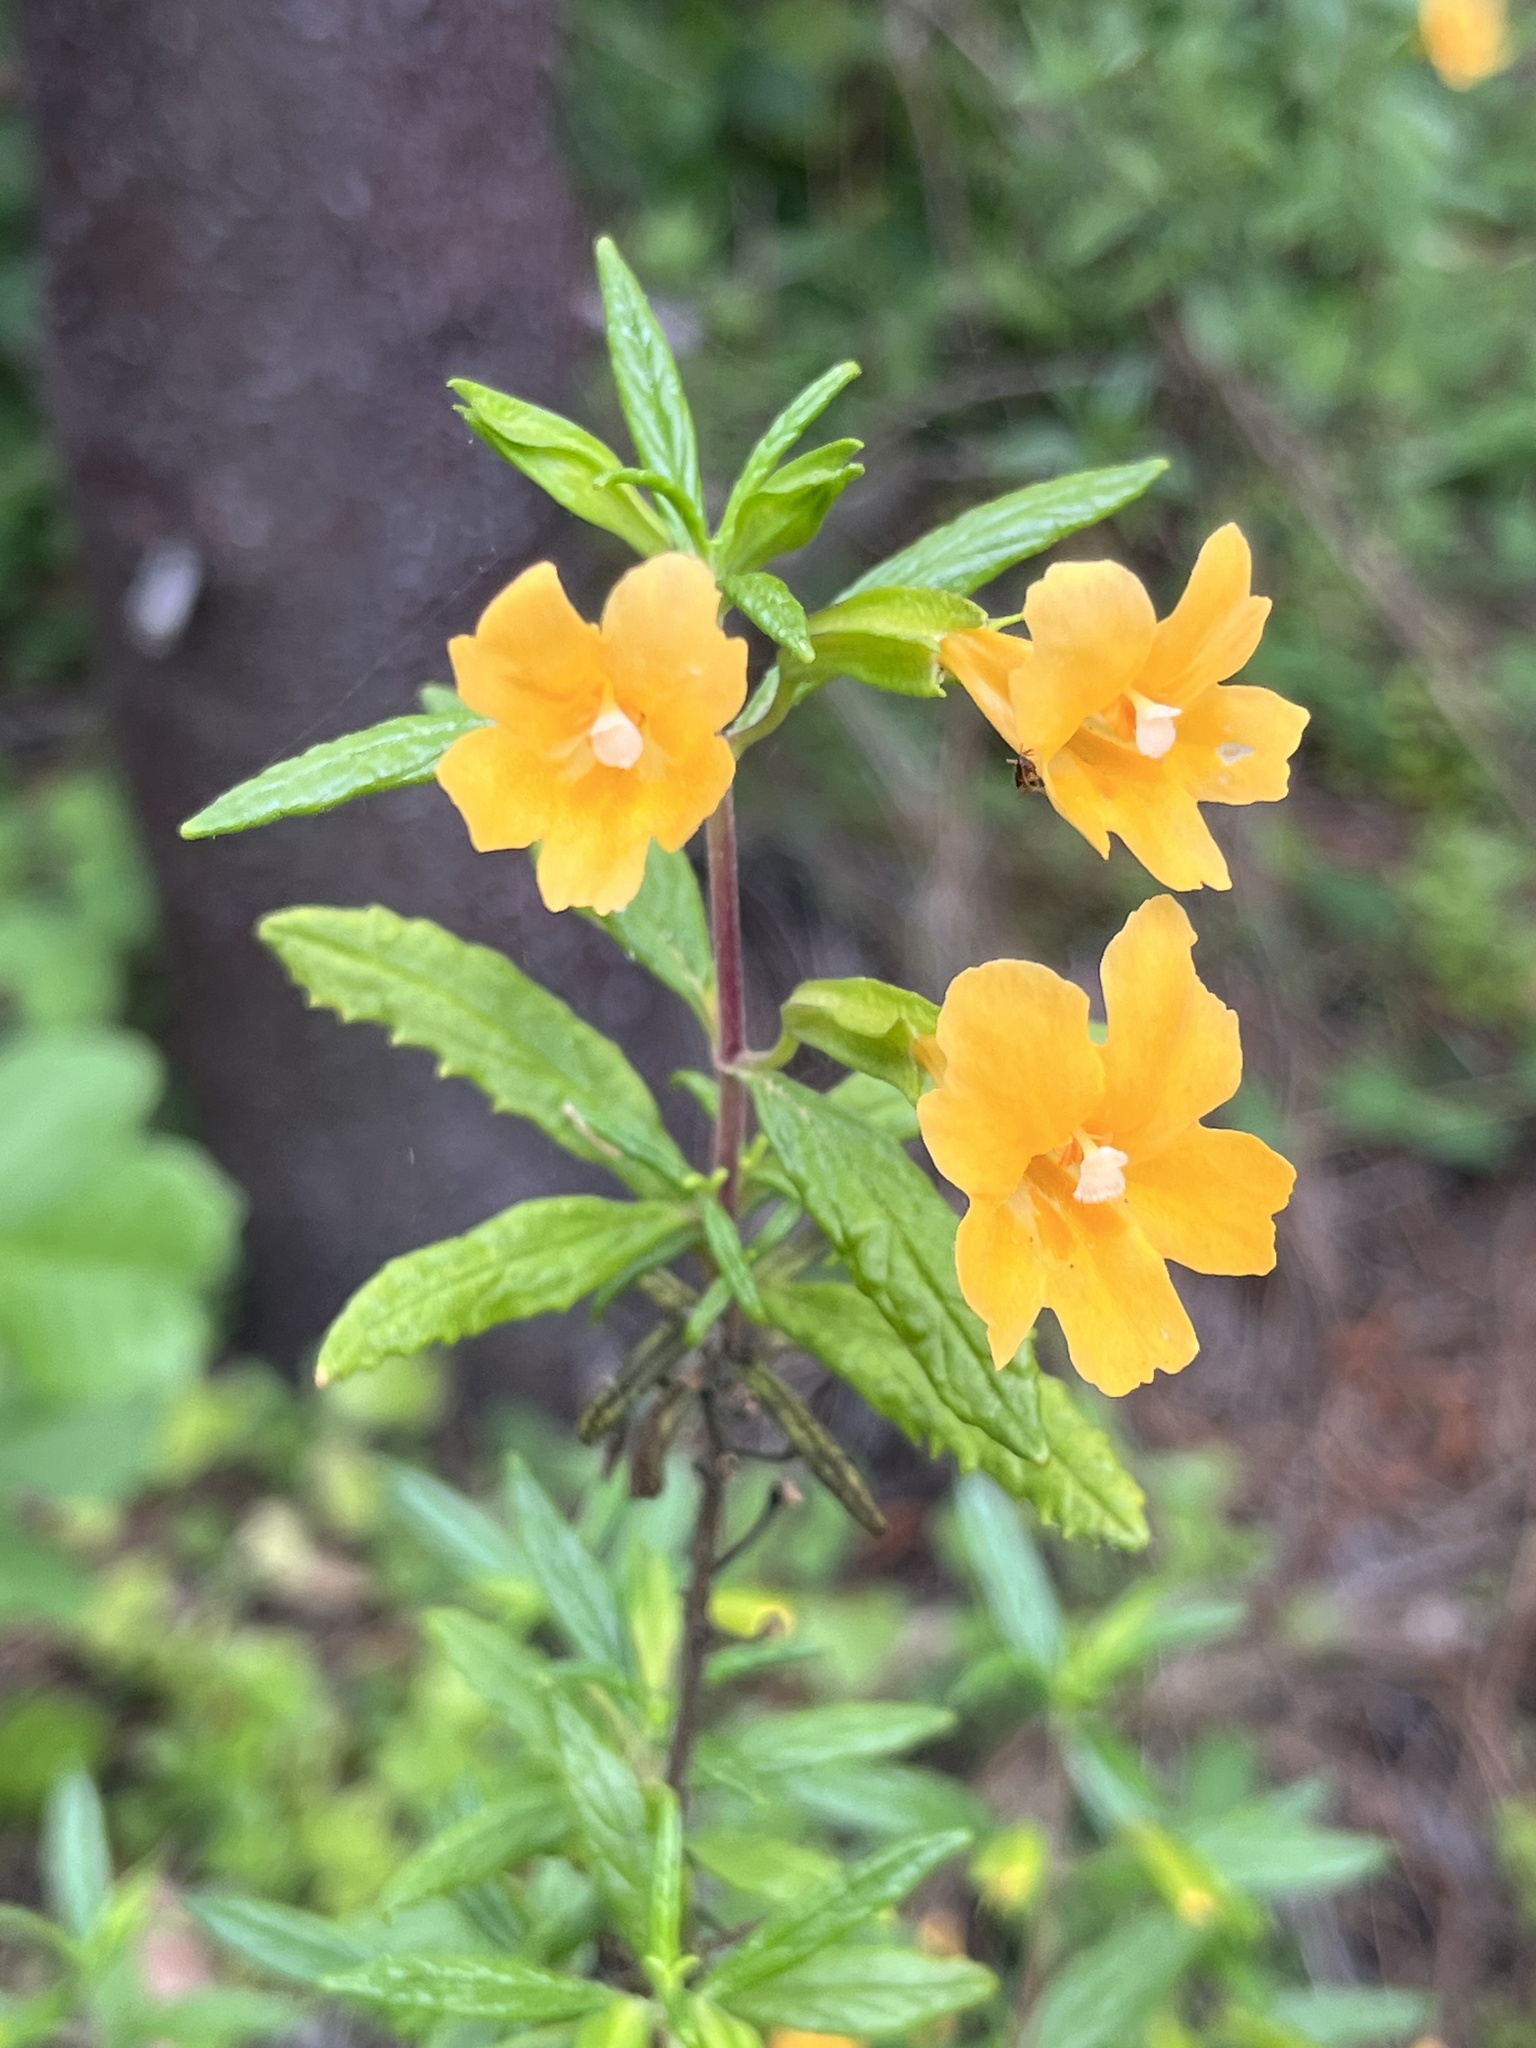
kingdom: Plantae
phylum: Tracheophyta
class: Magnoliopsida
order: Lamiales
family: Phrymaceae
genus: Diplacus
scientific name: Diplacus aurantiacus
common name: Bush monkey-flower
